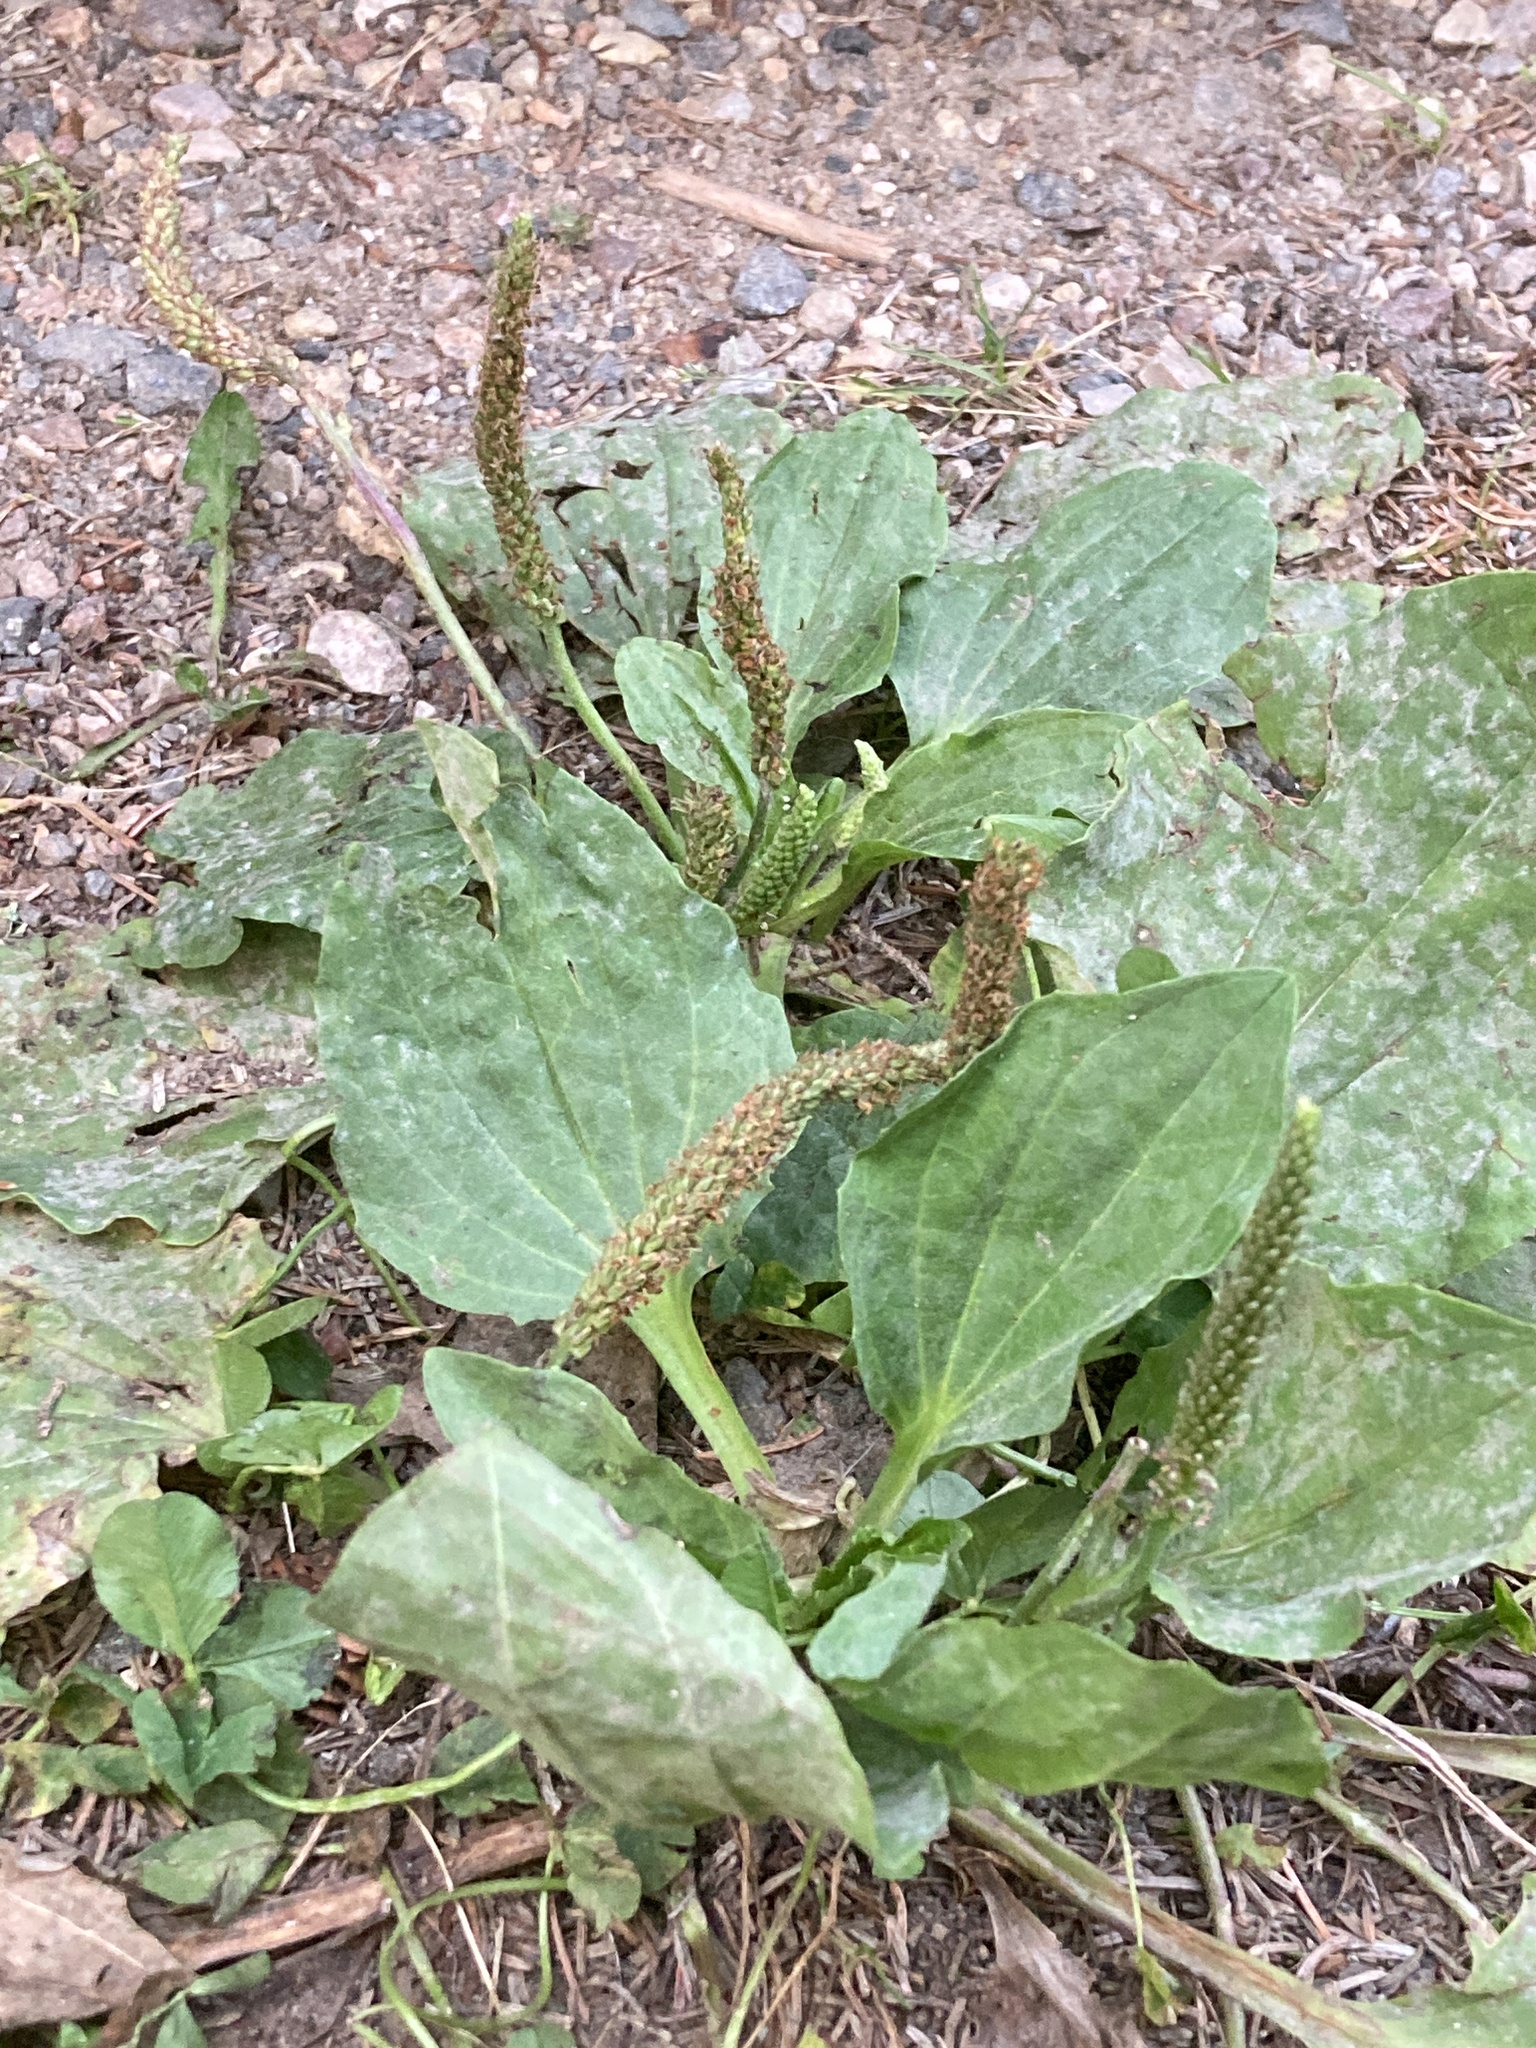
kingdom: Plantae
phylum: Tracheophyta
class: Magnoliopsida
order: Lamiales
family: Plantaginaceae
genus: Plantago
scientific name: Plantago major
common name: Common plantain
